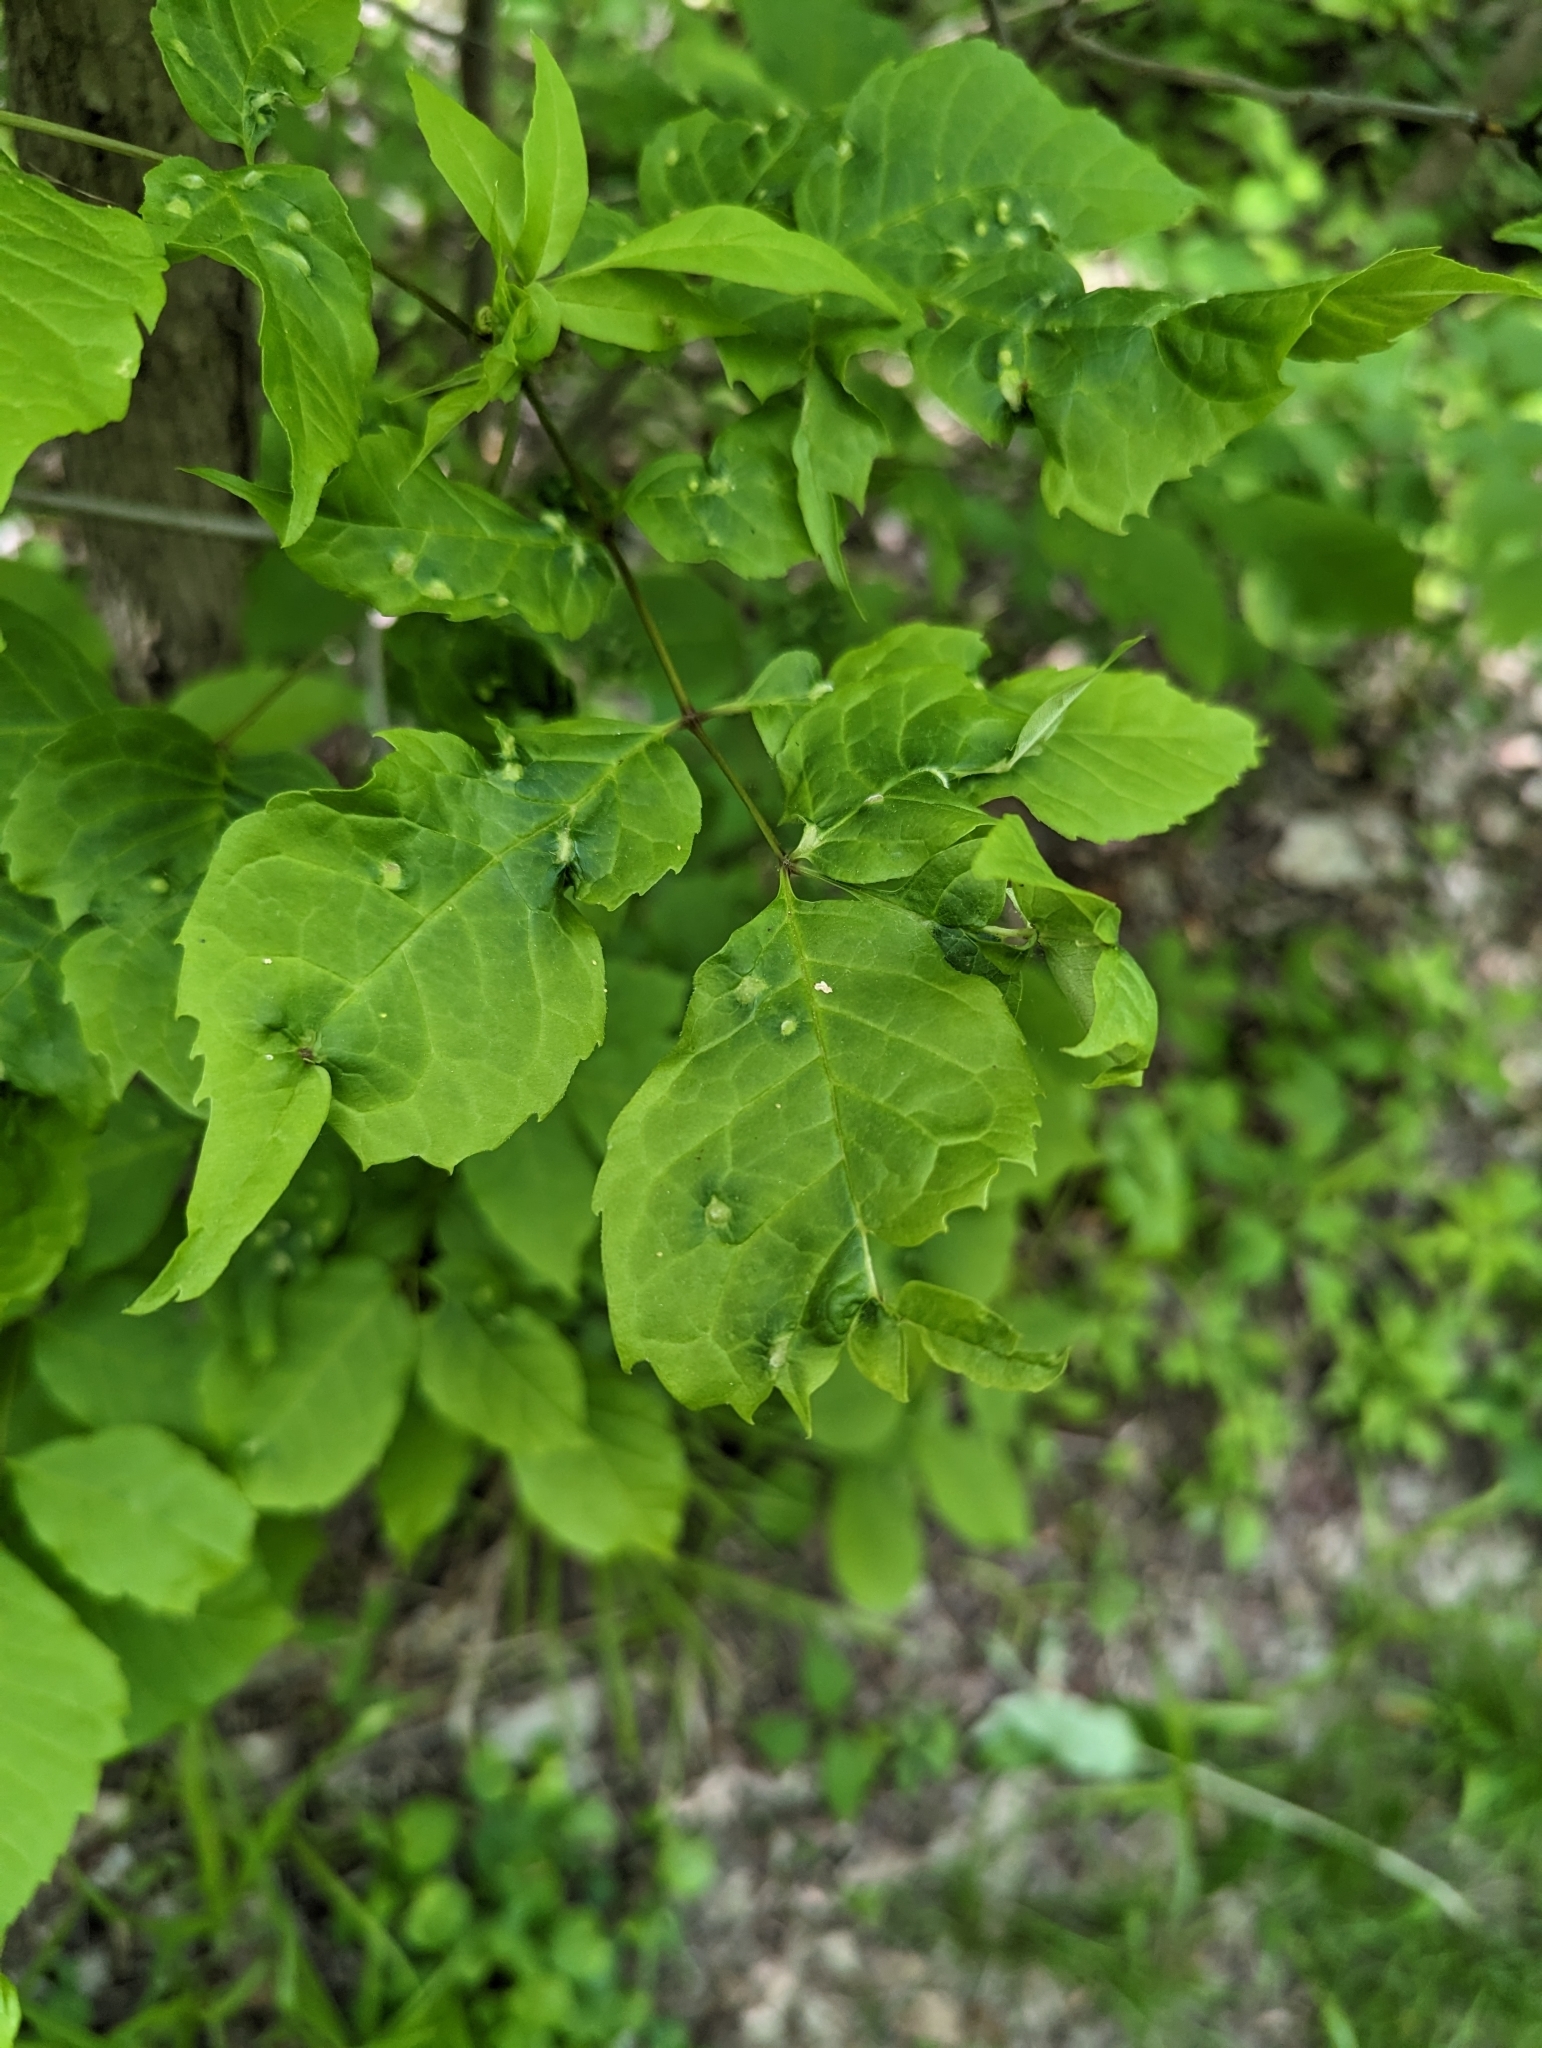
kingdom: Animalia
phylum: Arthropoda
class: Arachnida
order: Trombidiformes
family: Eriophyidae
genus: Aceria
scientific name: Aceria fraxinicola
